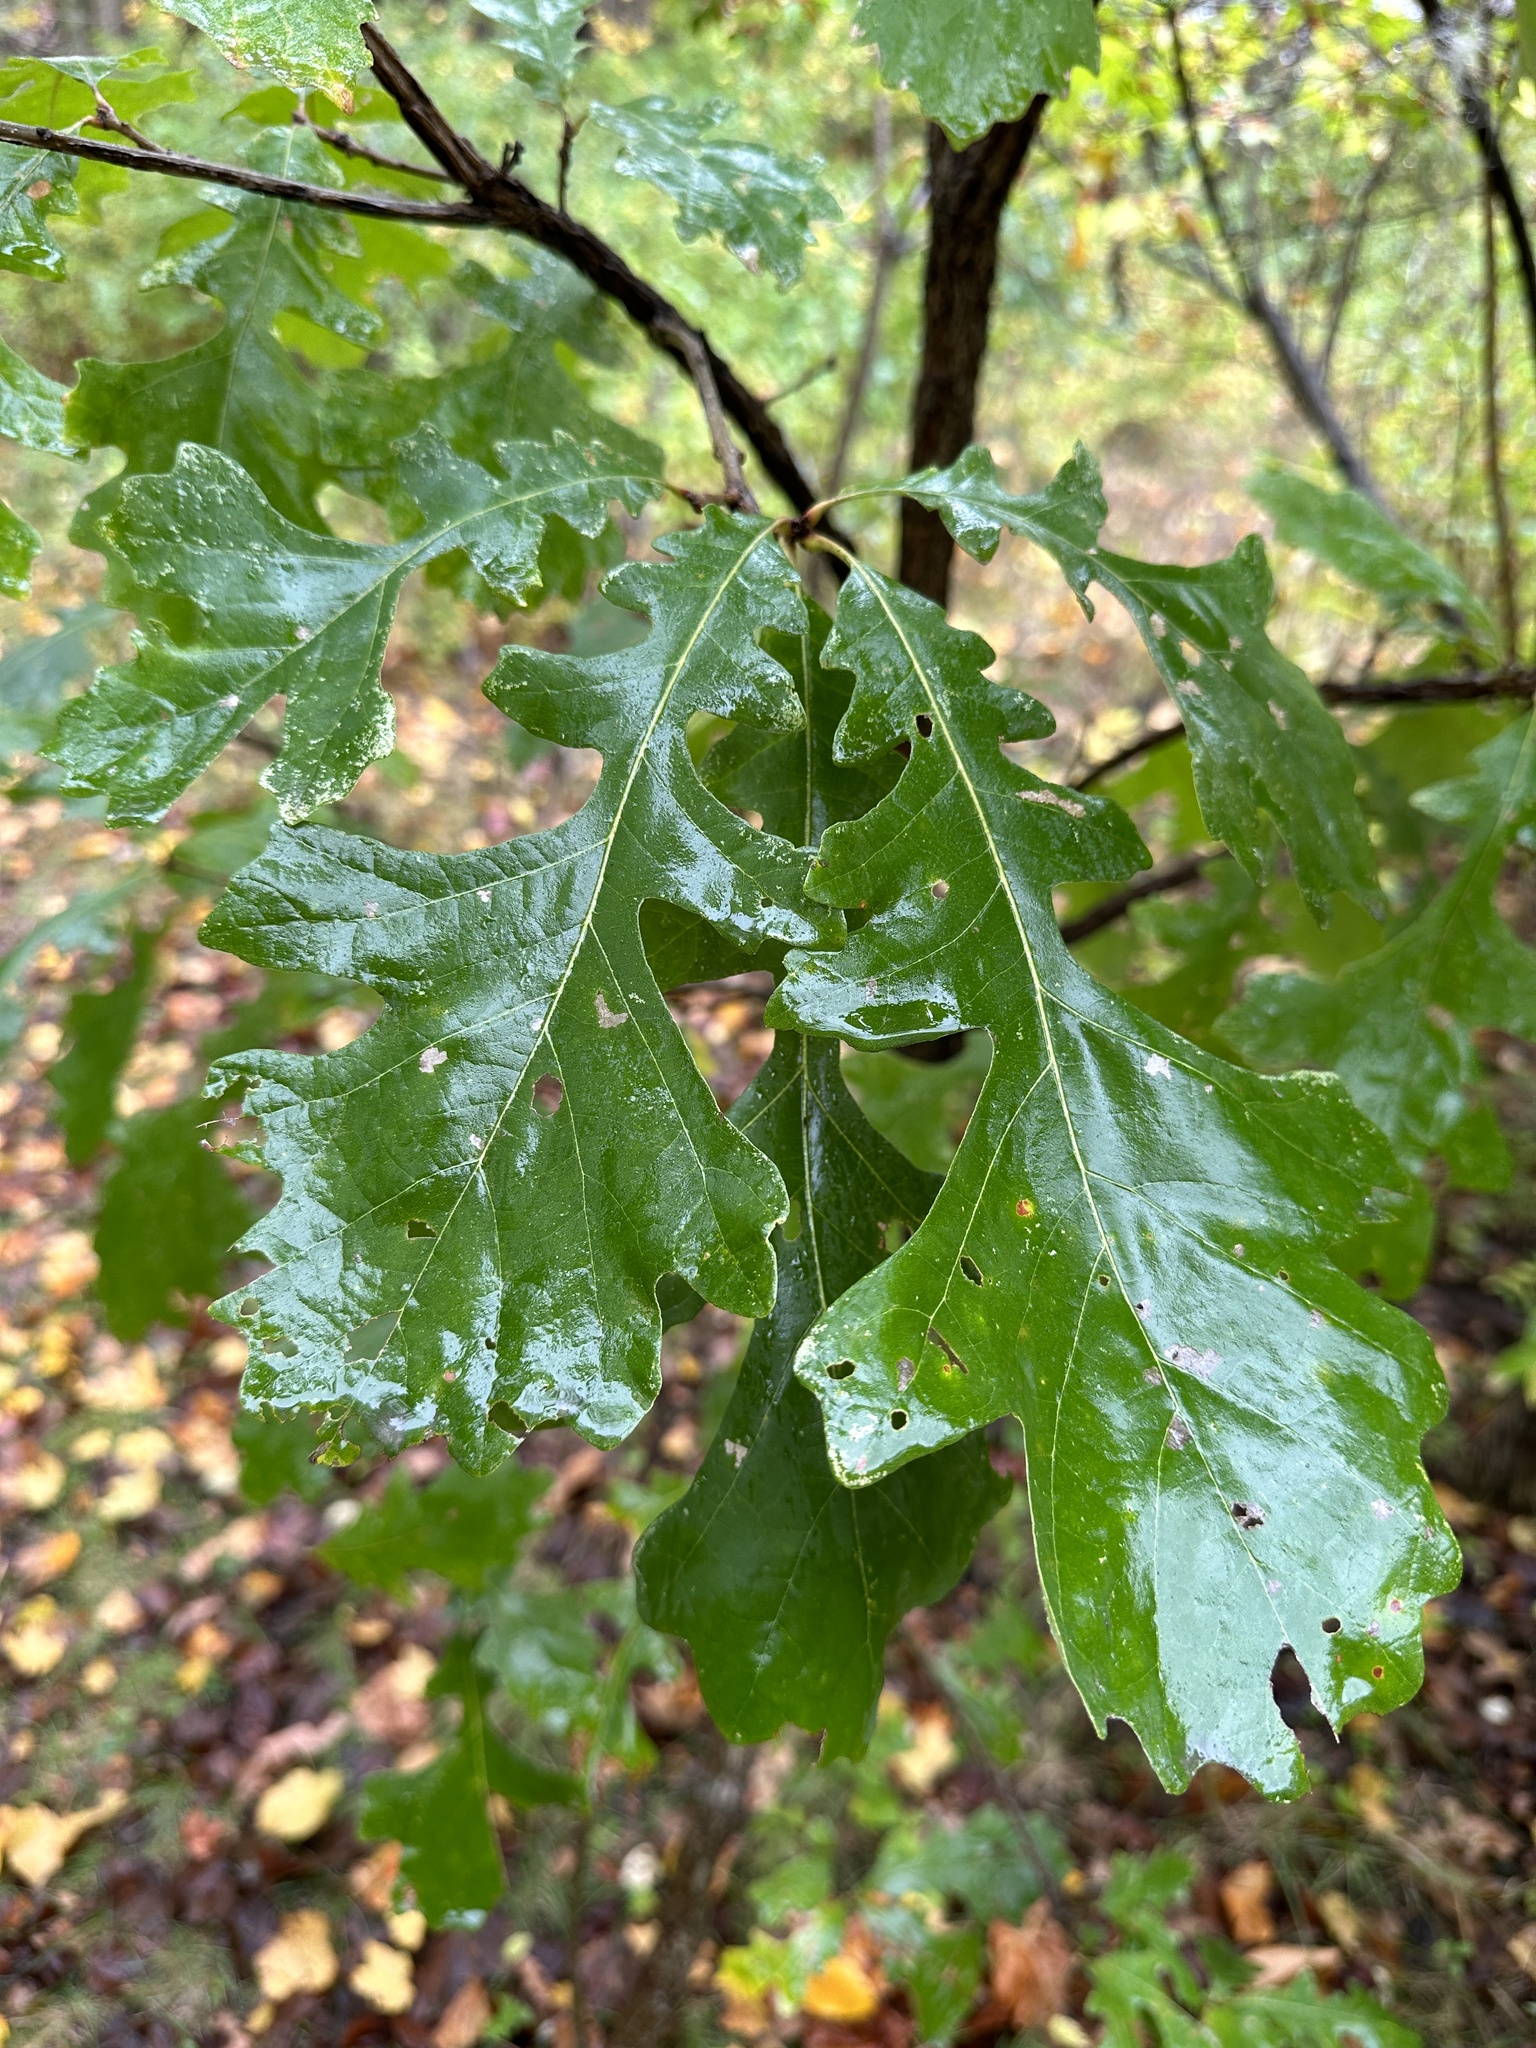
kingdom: Plantae
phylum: Tracheophyta
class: Magnoliopsida
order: Fagales
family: Fagaceae
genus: Quercus
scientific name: Quercus macrocarpa
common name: Bur oak
